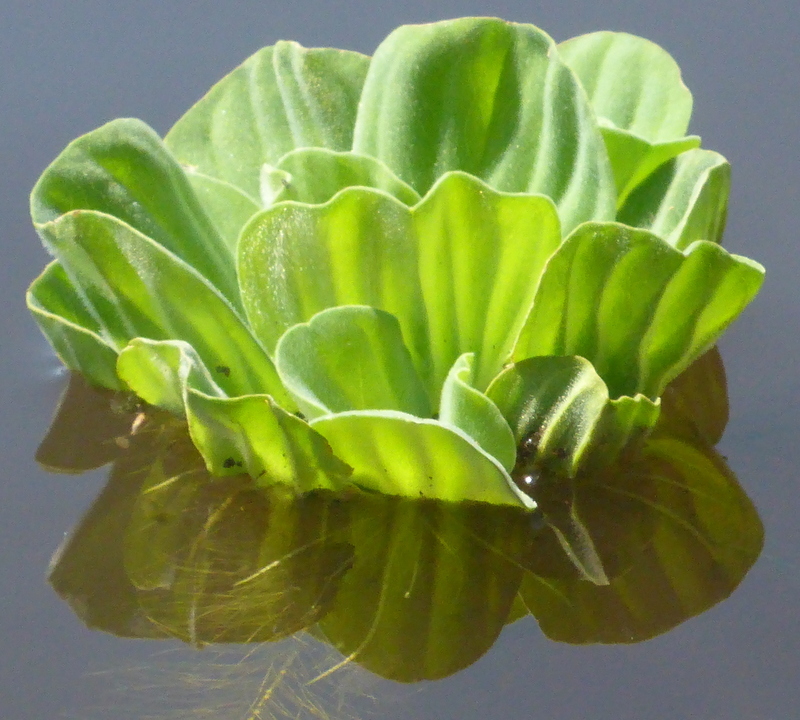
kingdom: Plantae
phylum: Tracheophyta
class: Liliopsida
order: Alismatales
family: Araceae
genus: Pistia
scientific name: Pistia stratiotes
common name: Water lettuce
